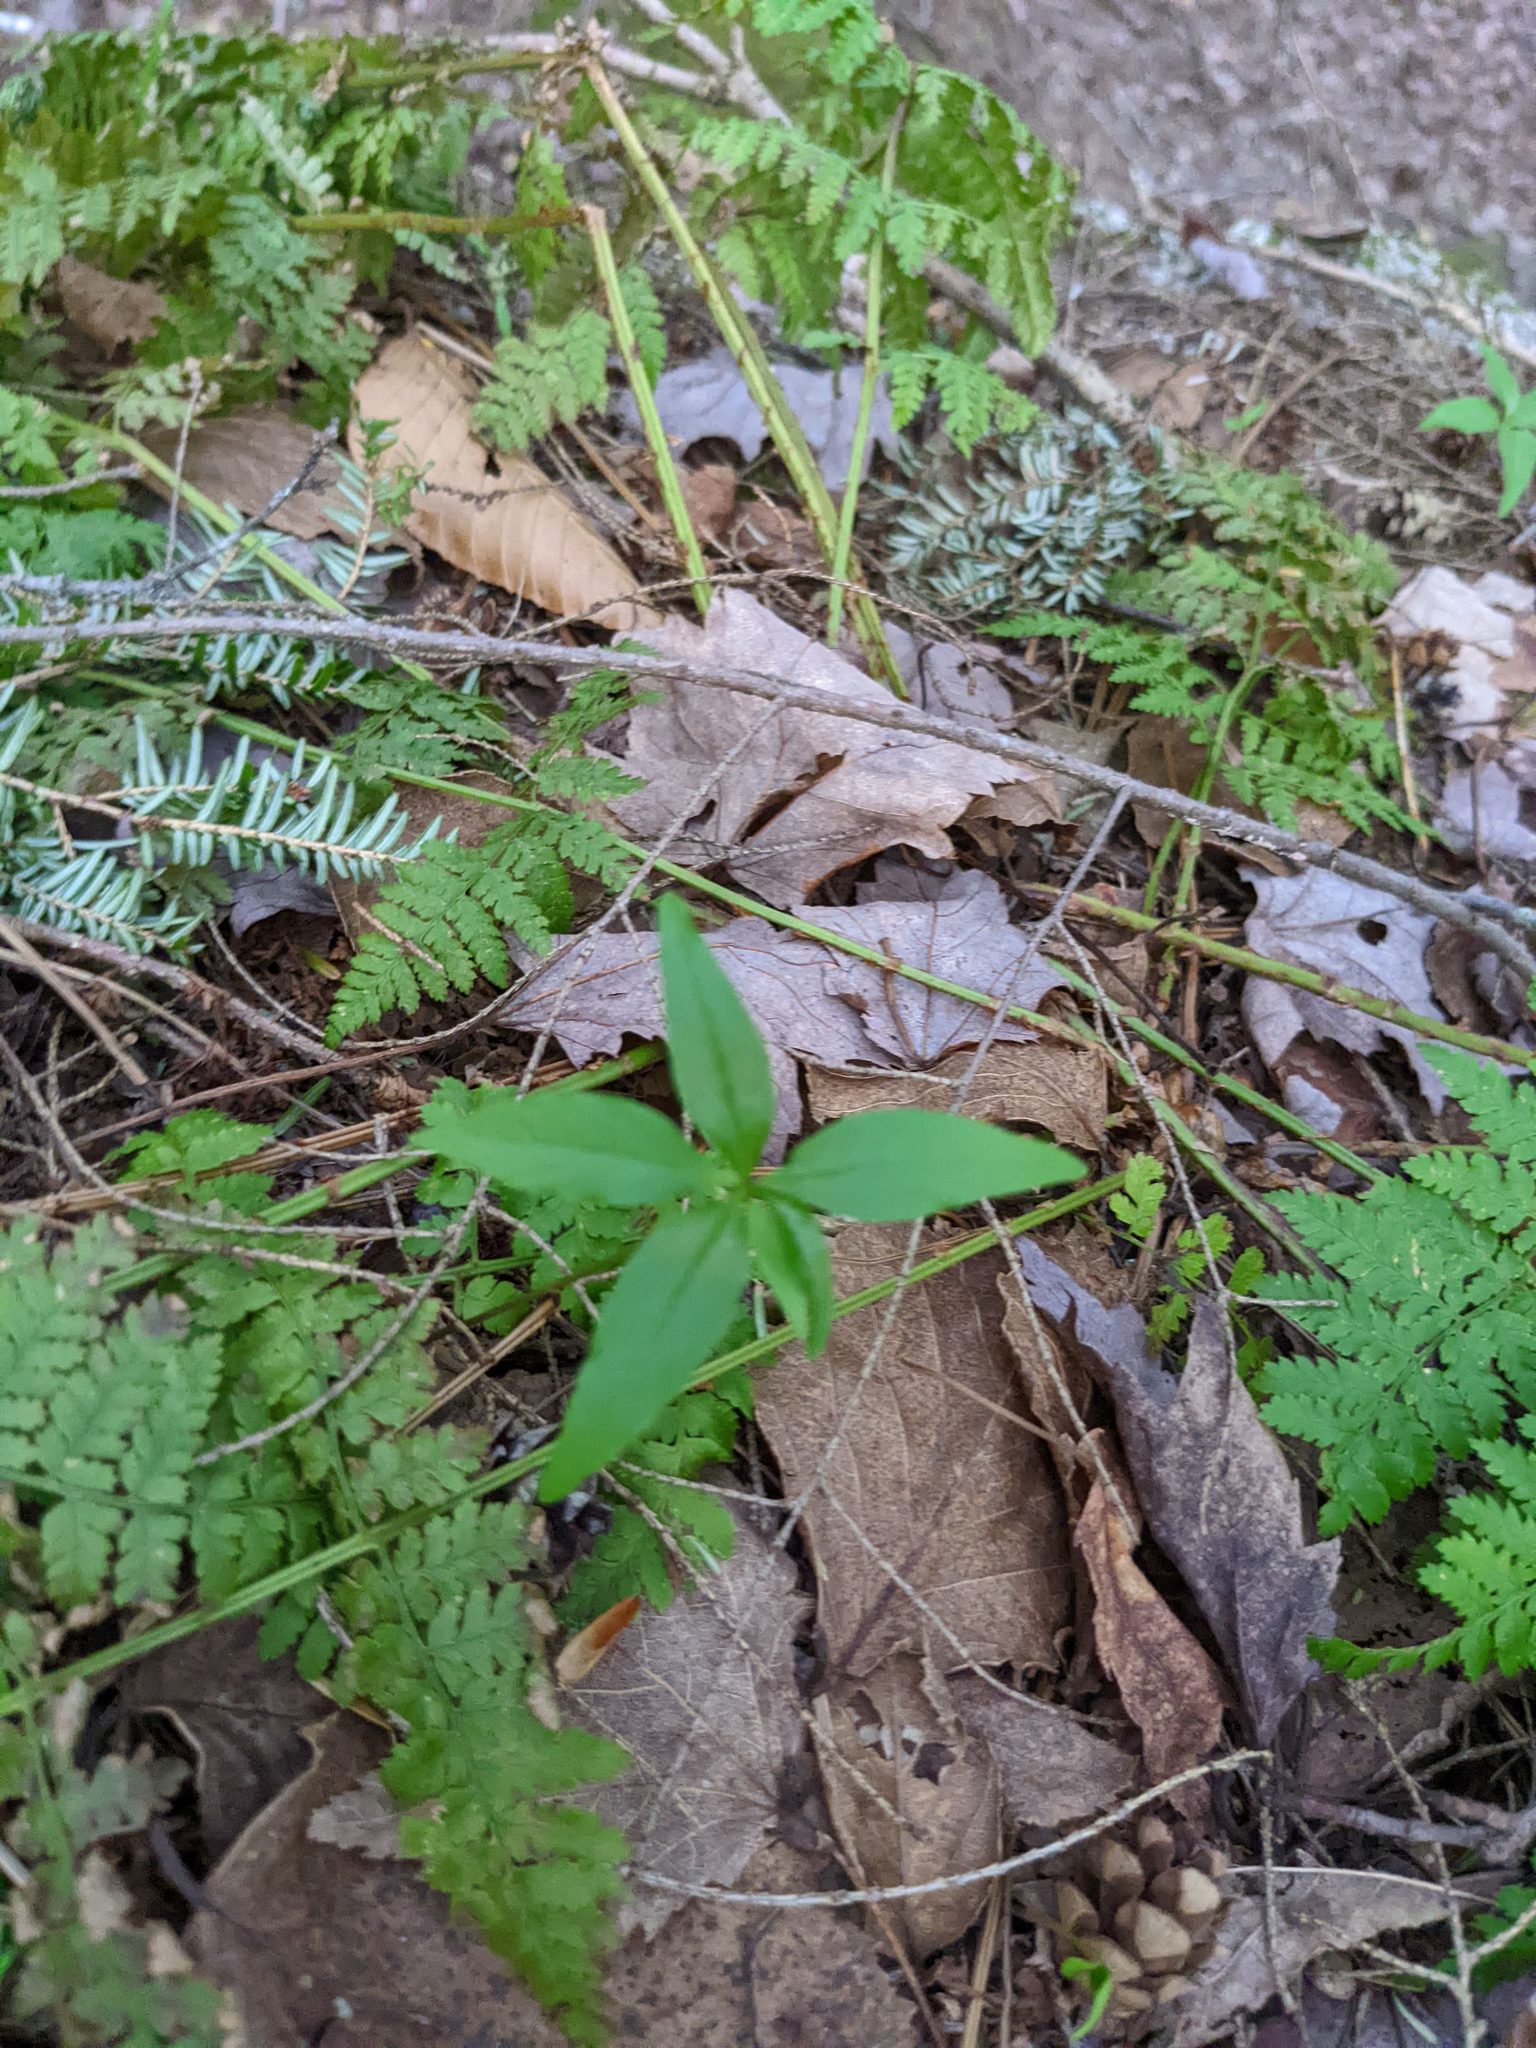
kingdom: Plantae
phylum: Tracheophyta
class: Magnoliopsida
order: Ericales
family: Primulaceae
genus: Lysimachia
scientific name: Lysimachia borealis
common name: American starflower
